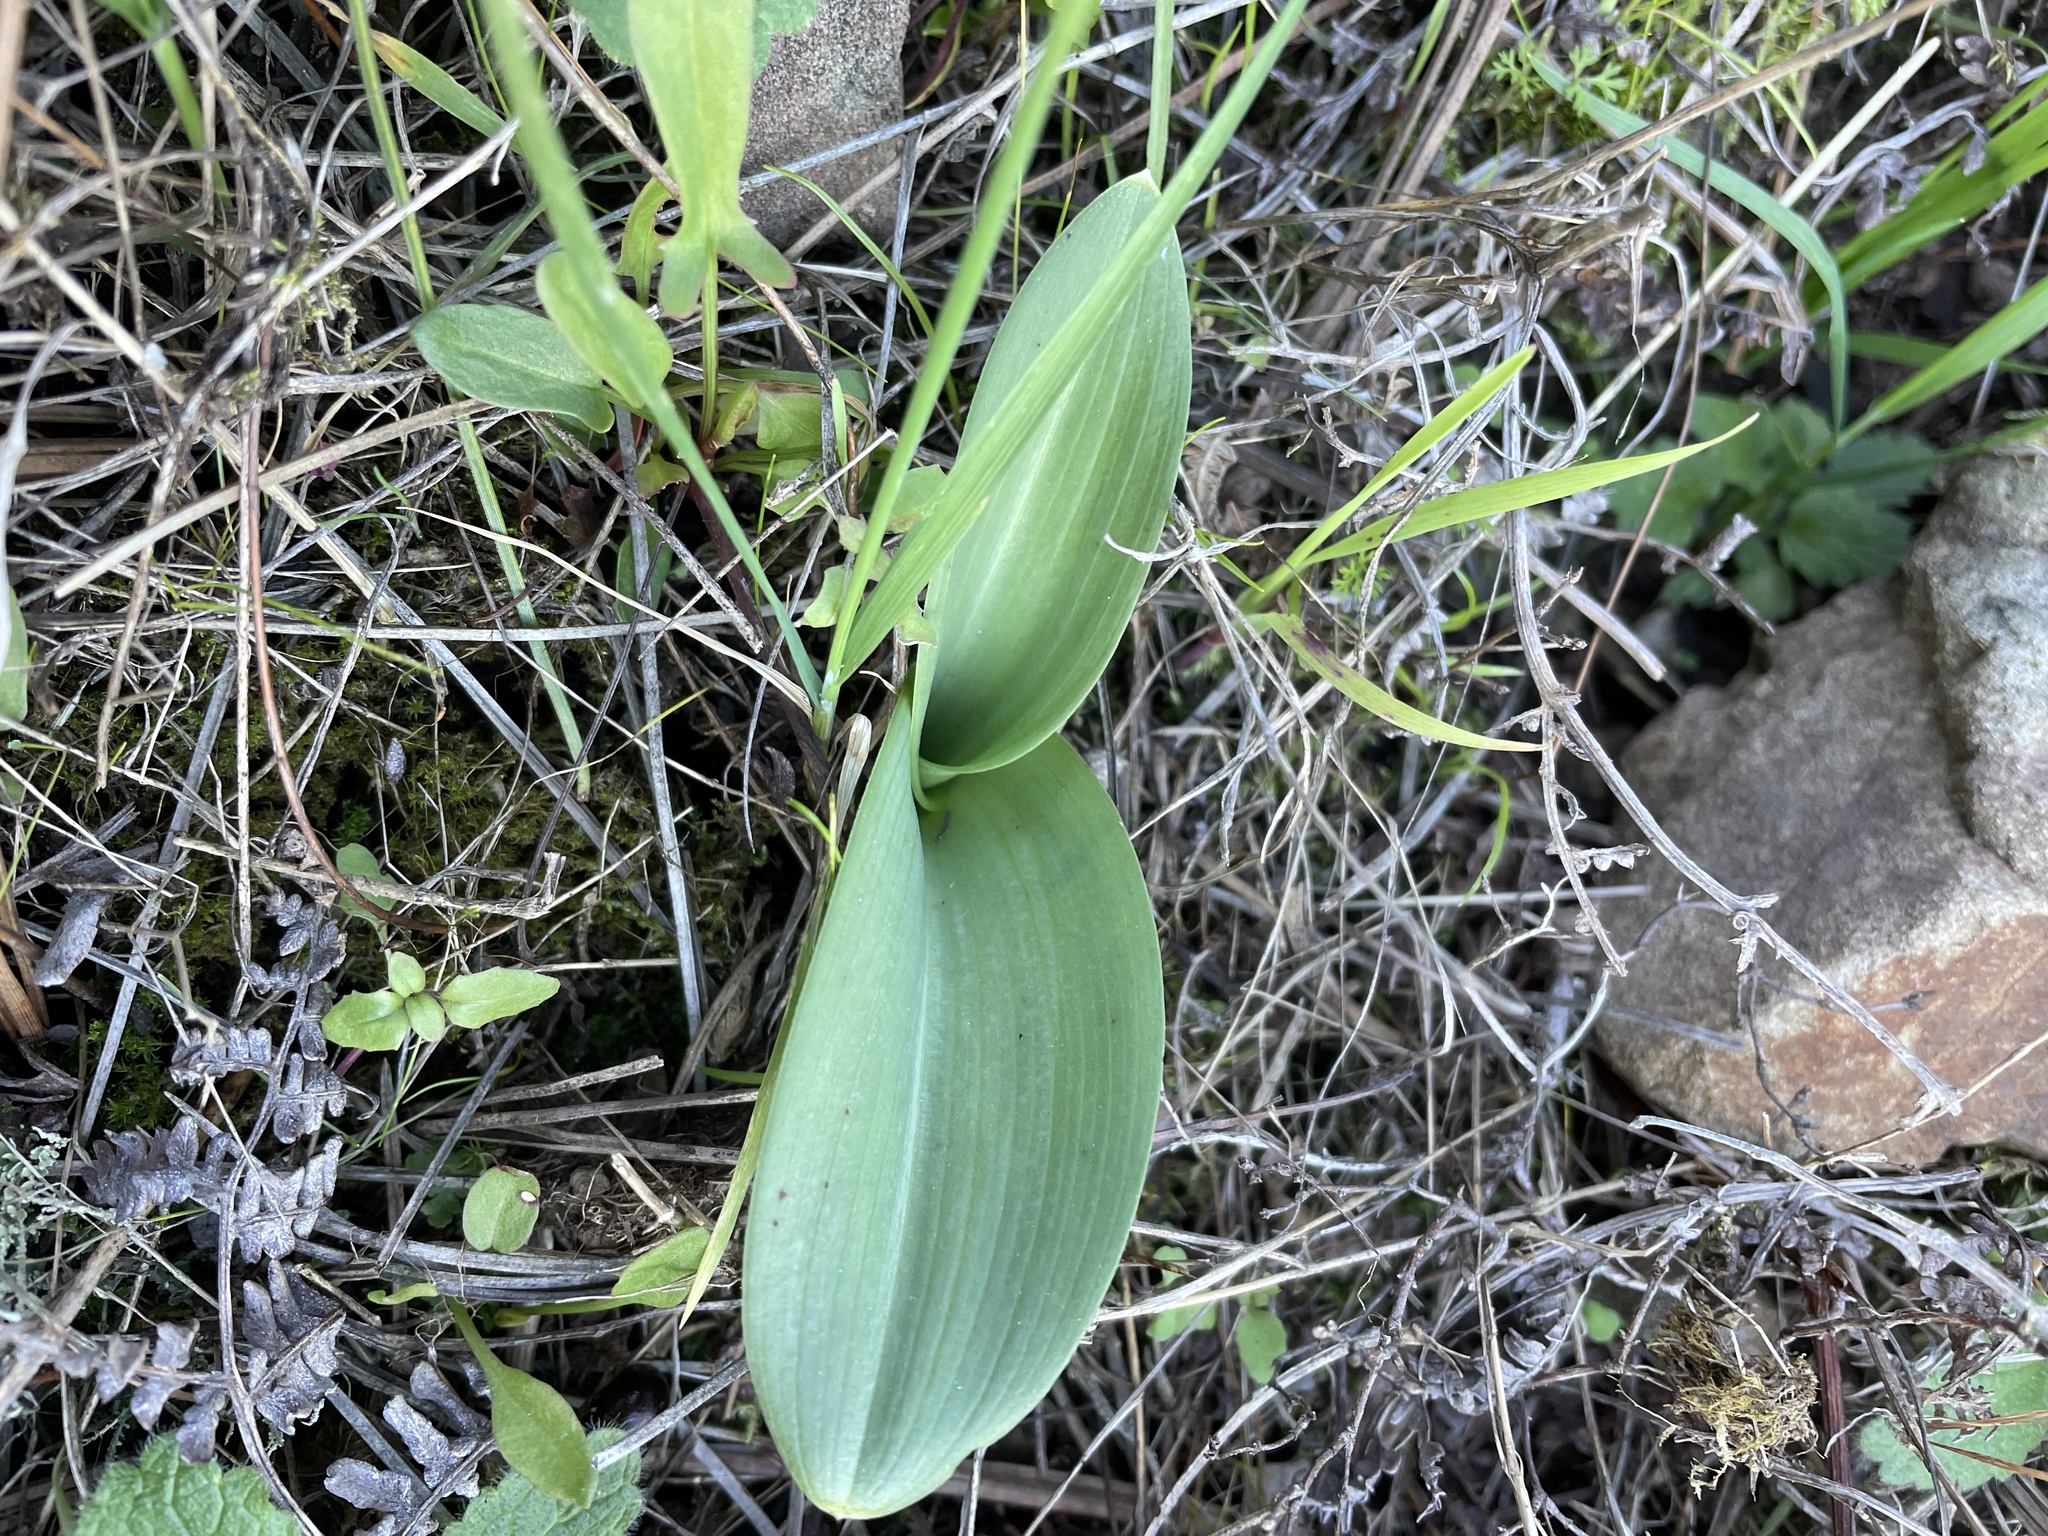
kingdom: Plantae
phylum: Tracheophyta
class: Liliopsida
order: Asparagales
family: Orchidaceae
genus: Platanthera
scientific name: Platanthera elegans
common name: Coast piperia
